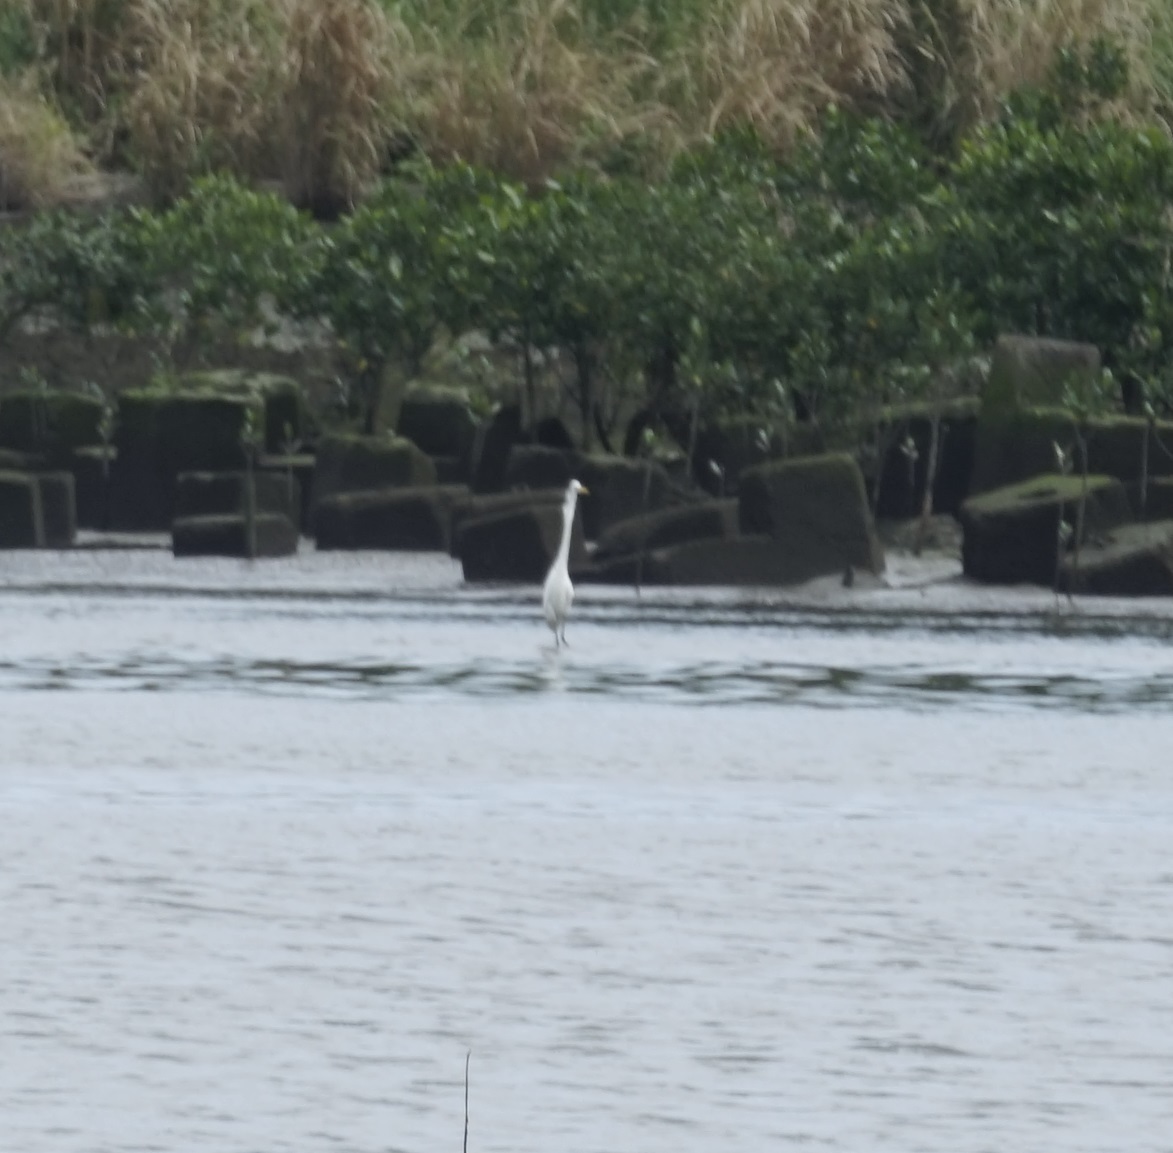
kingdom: Animalia
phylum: Chordata
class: Aves
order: Pelecaniformes
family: Ardeidae
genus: Ardea
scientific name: Ardea alba
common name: Great egret
